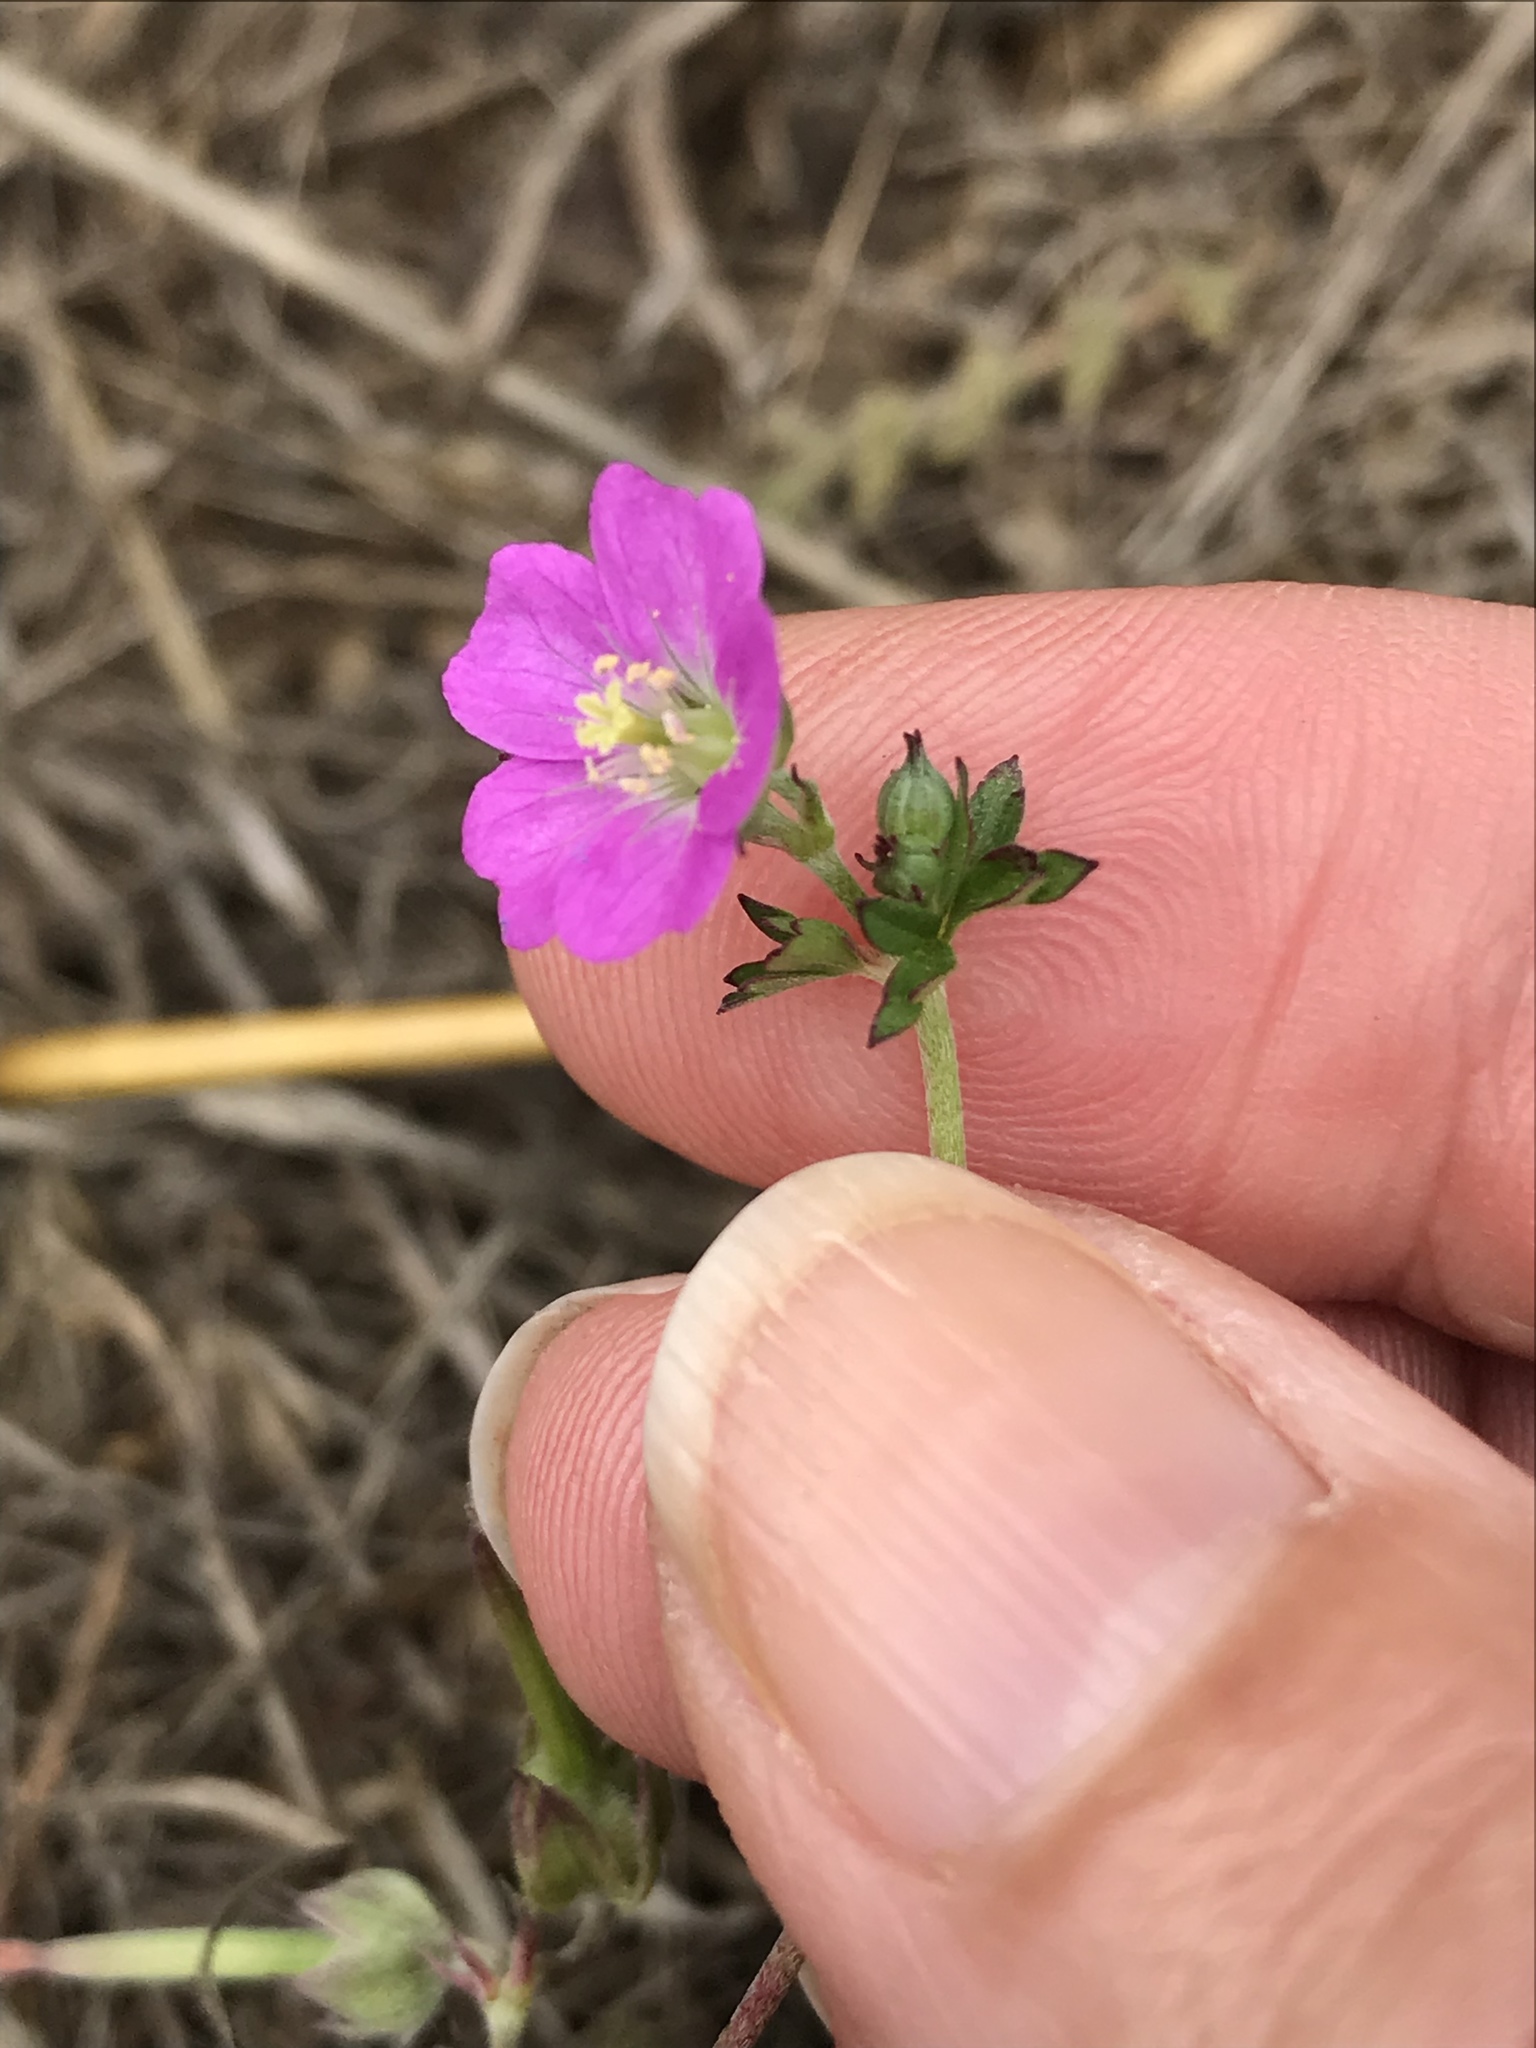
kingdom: Plantae
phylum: Tracheophyta
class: Magnoliopsida
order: Geraniales
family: Geraniaceae
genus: Geranium
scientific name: Geranium core-core
